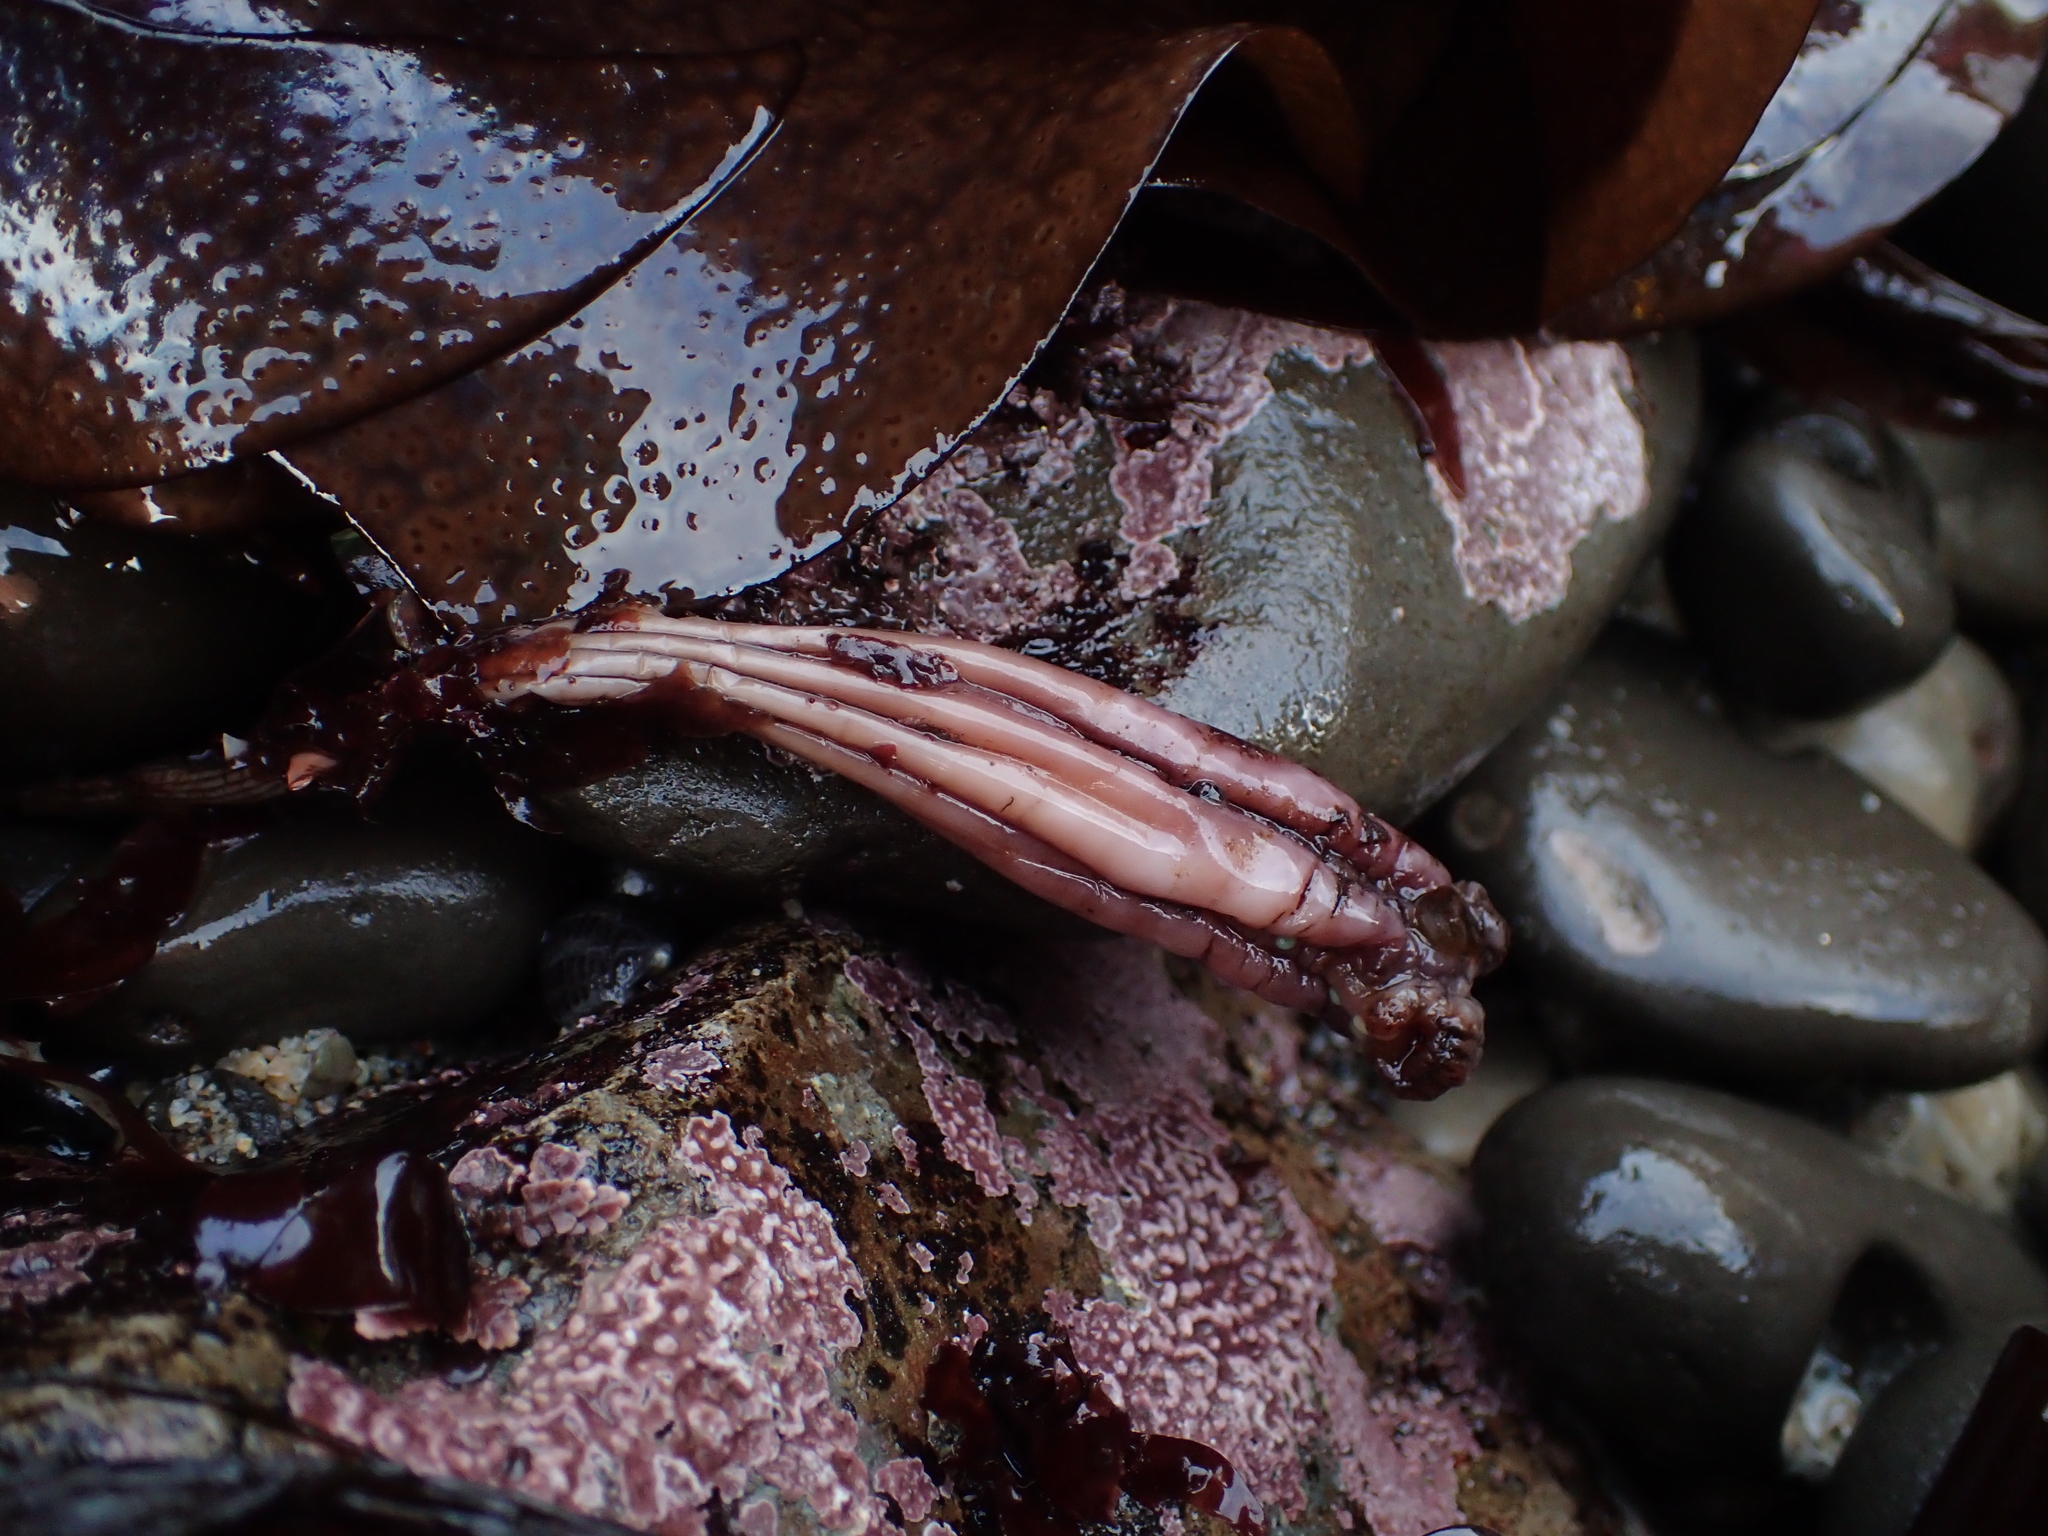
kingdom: Animalia
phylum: Chordata
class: Ascidiacea
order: Stolidobranchia
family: Styelidae
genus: Styela
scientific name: Styela montereyensis
